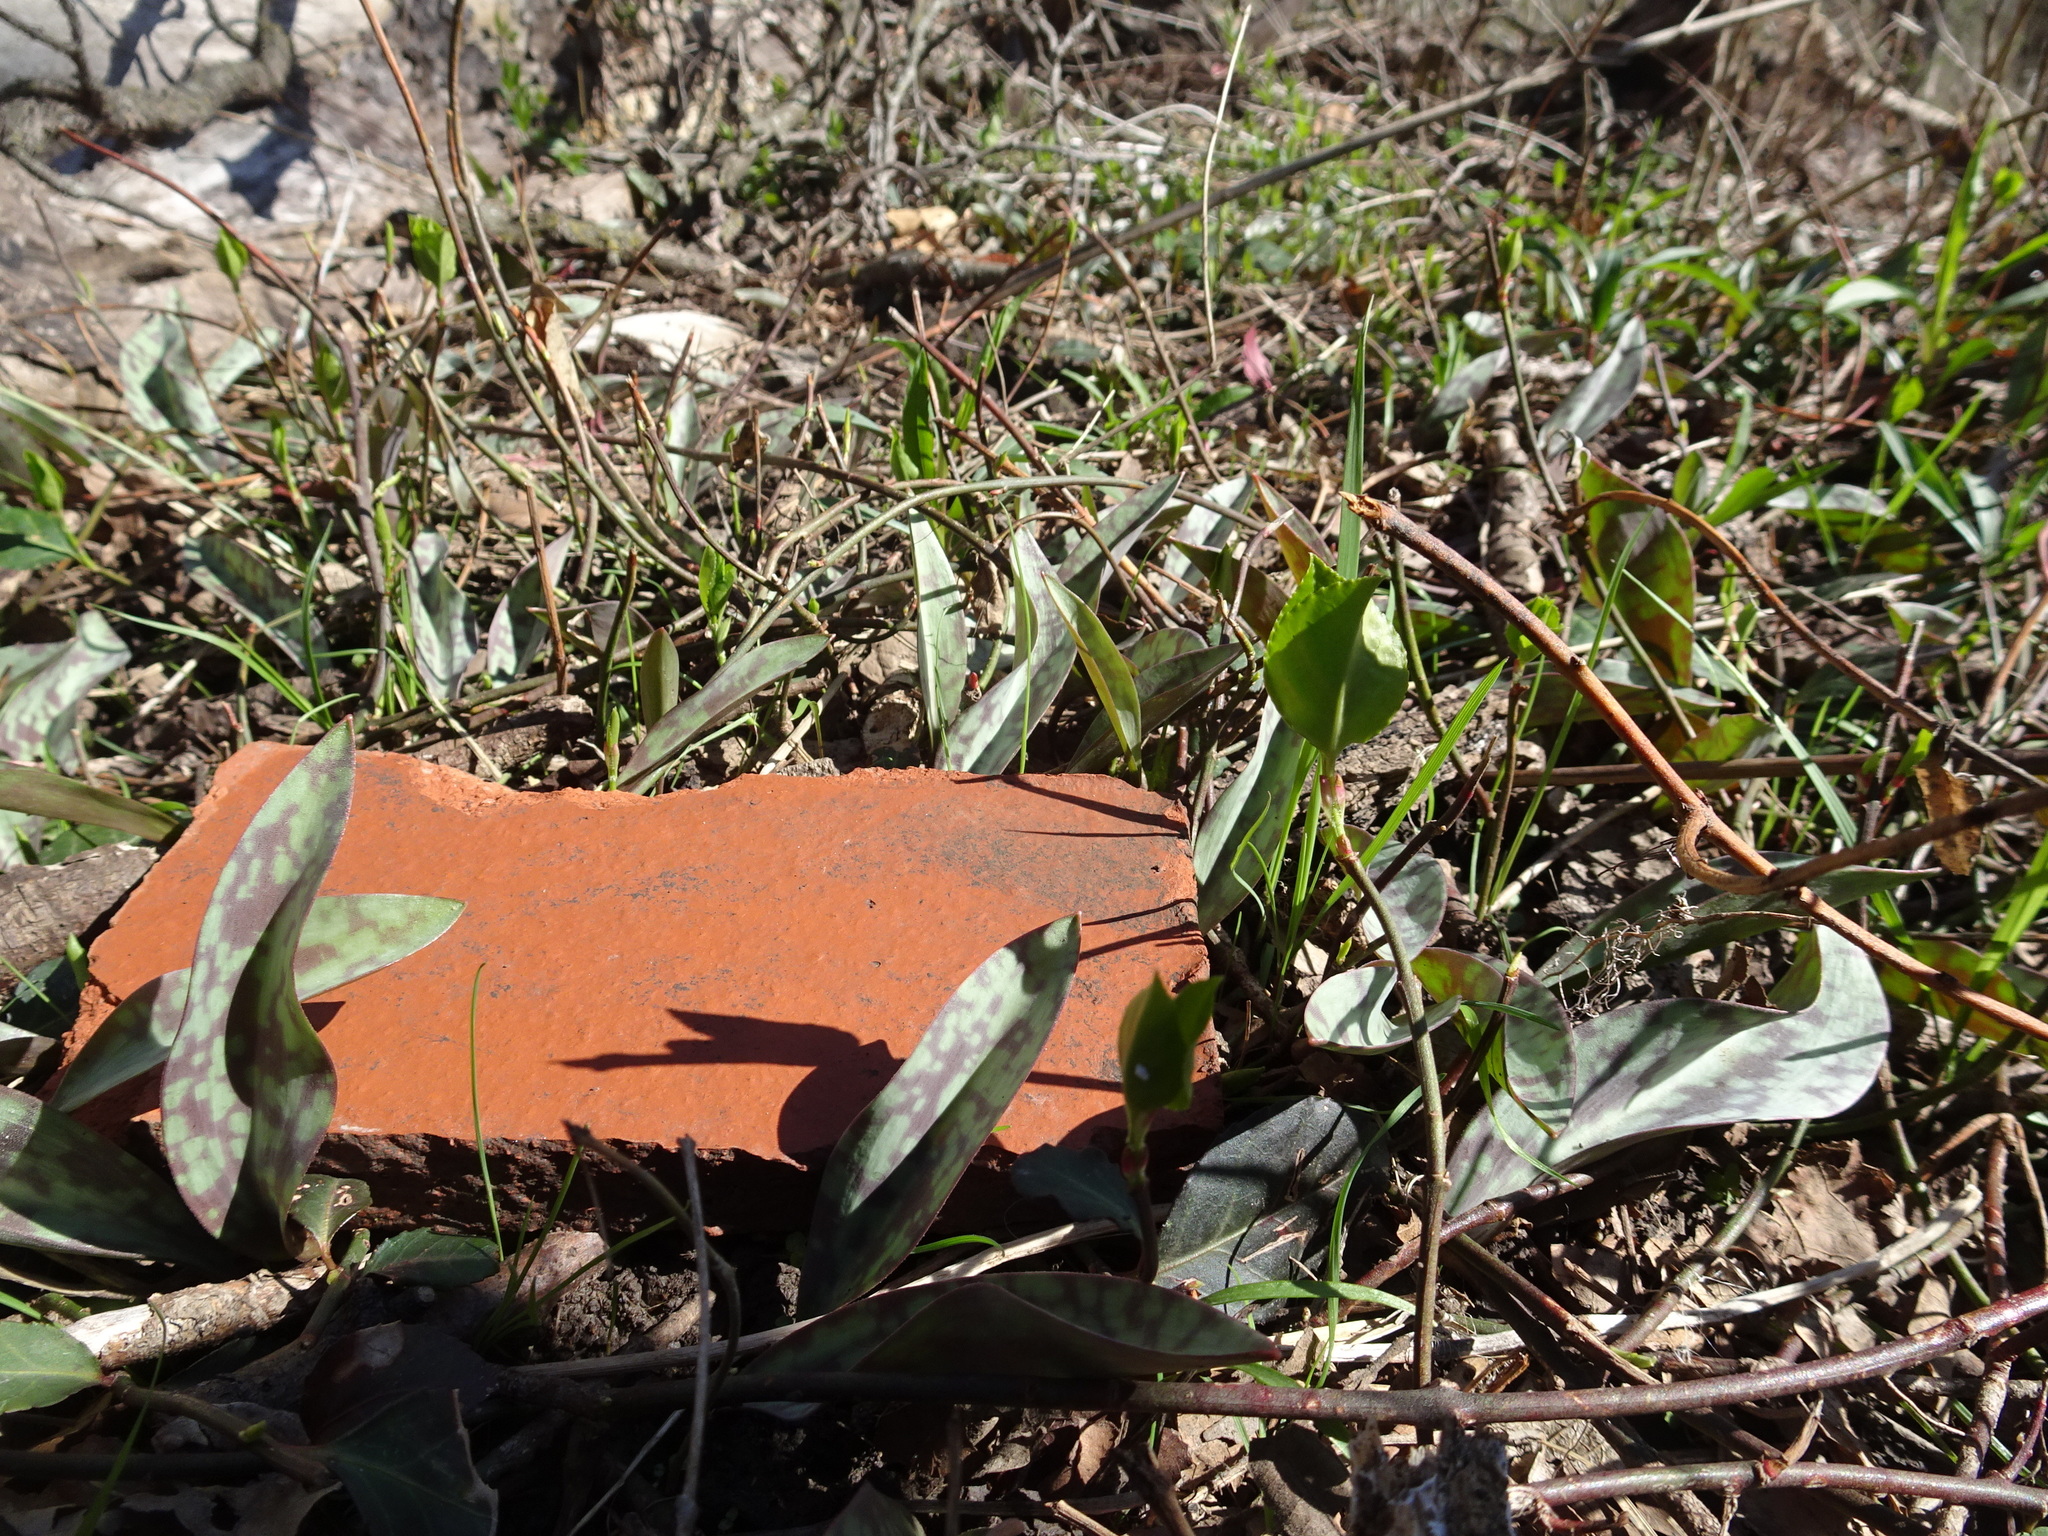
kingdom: Plantae
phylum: Tracheophyta
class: Liliopsida
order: Liliales
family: Liliaceae
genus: Erythronium
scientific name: Erythronium albidum
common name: White trout-lily
